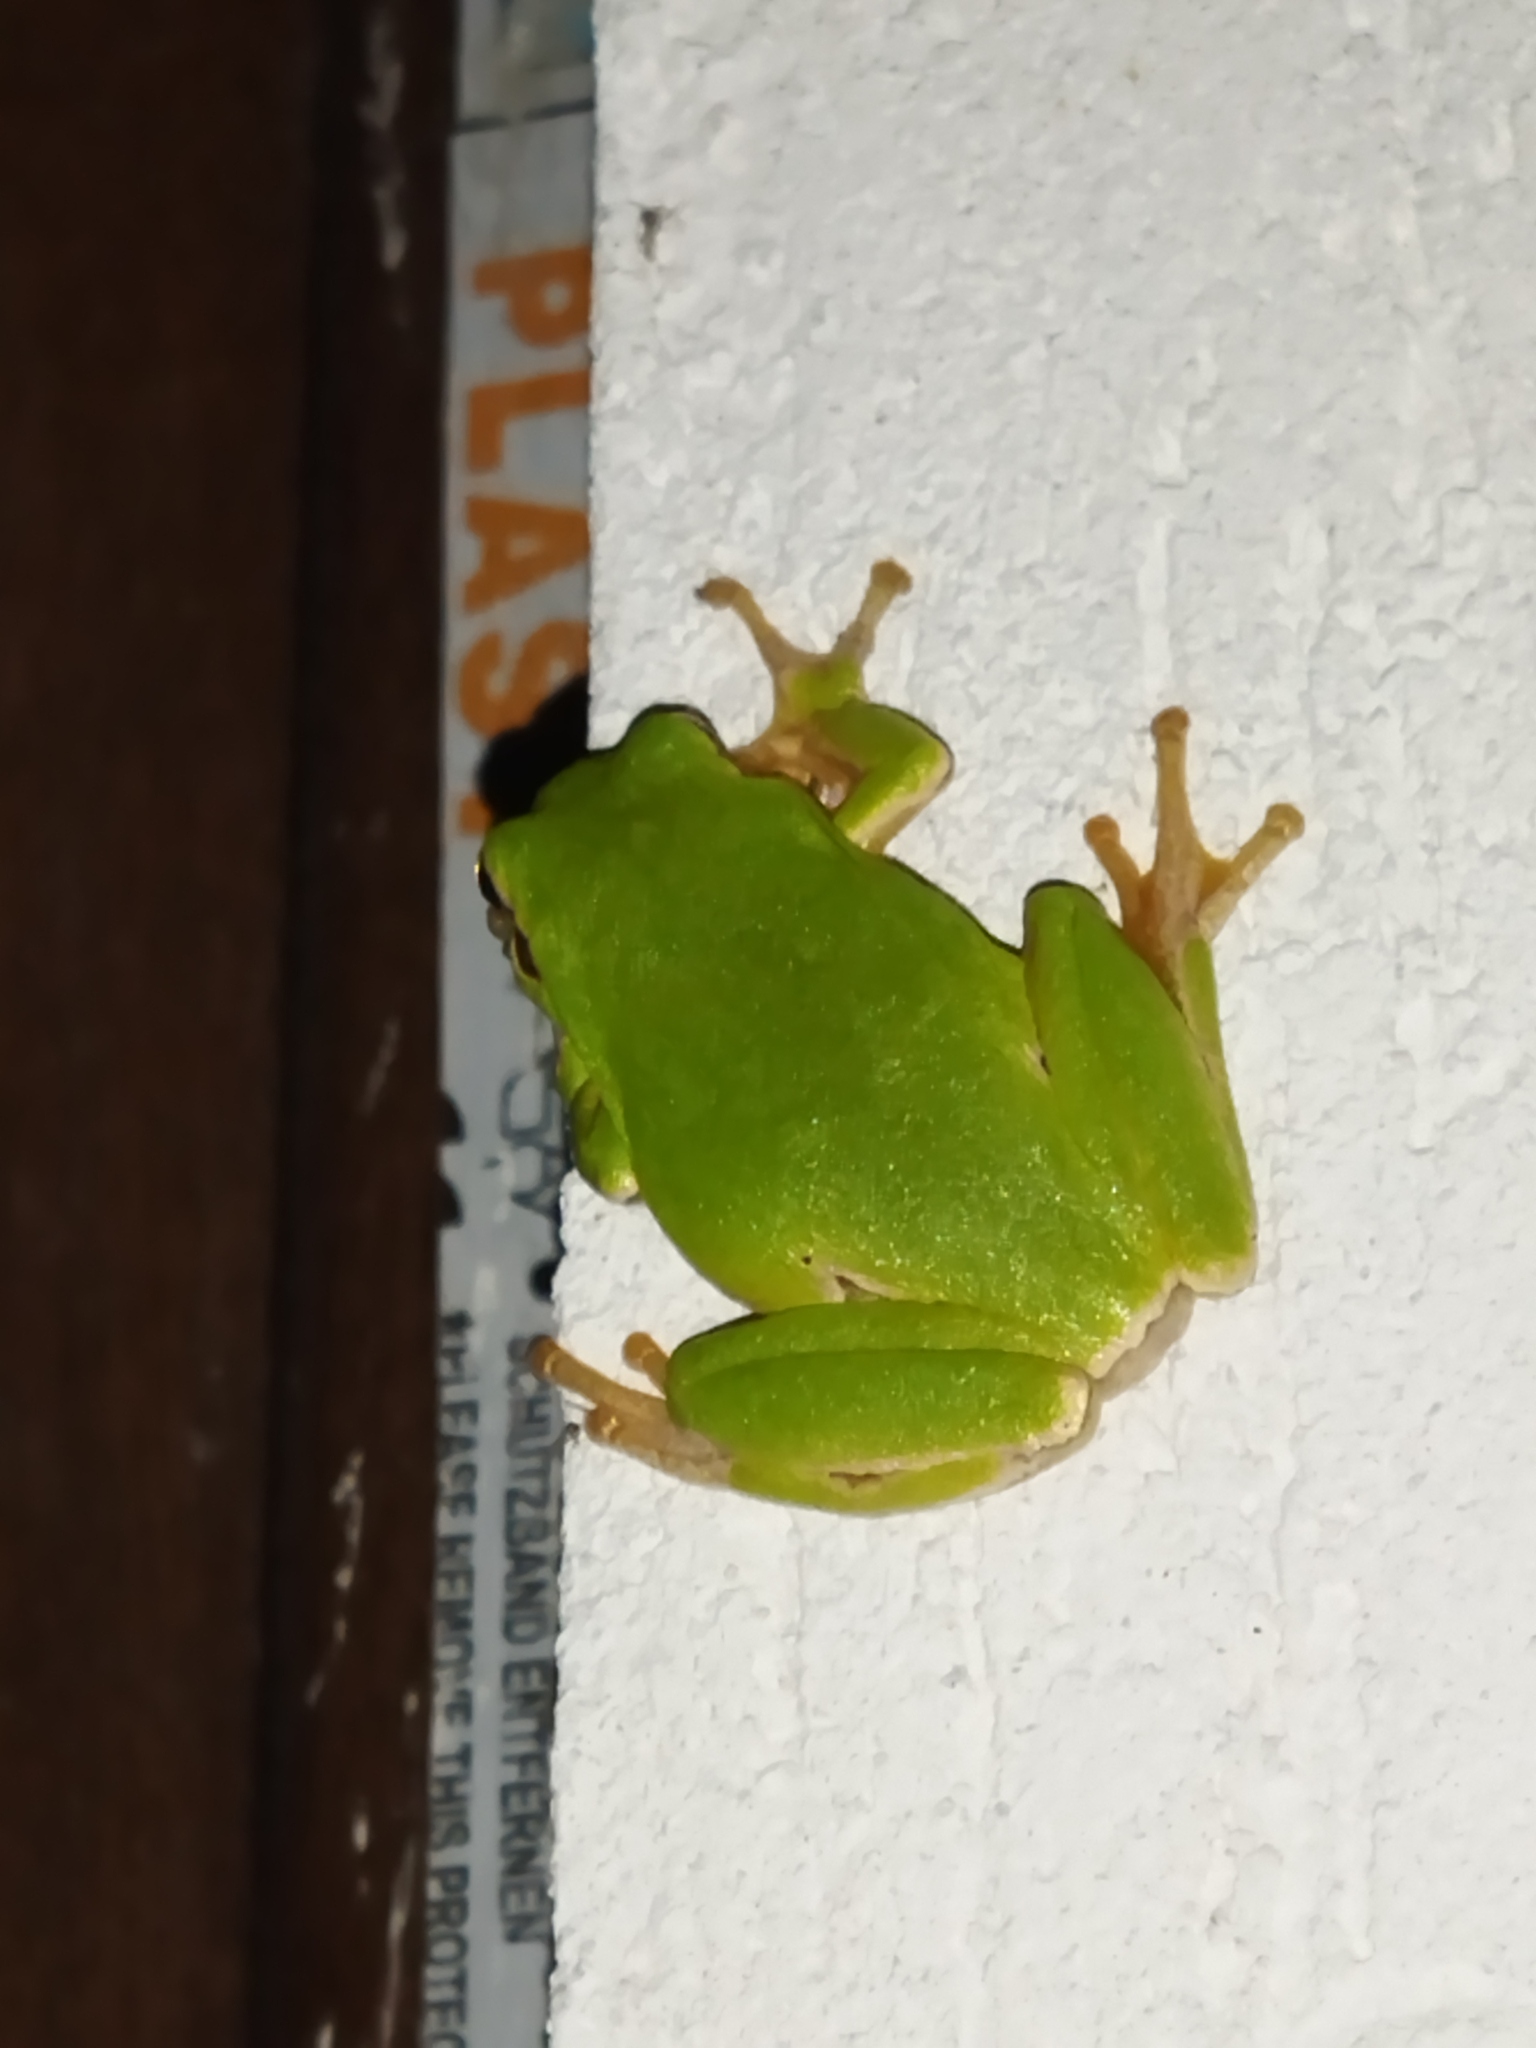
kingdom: Animalia
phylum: Chordata
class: Amphibia
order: Anura
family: Hylidae
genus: Hyla
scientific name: Hyla orientalis
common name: Caucasian treefrog
